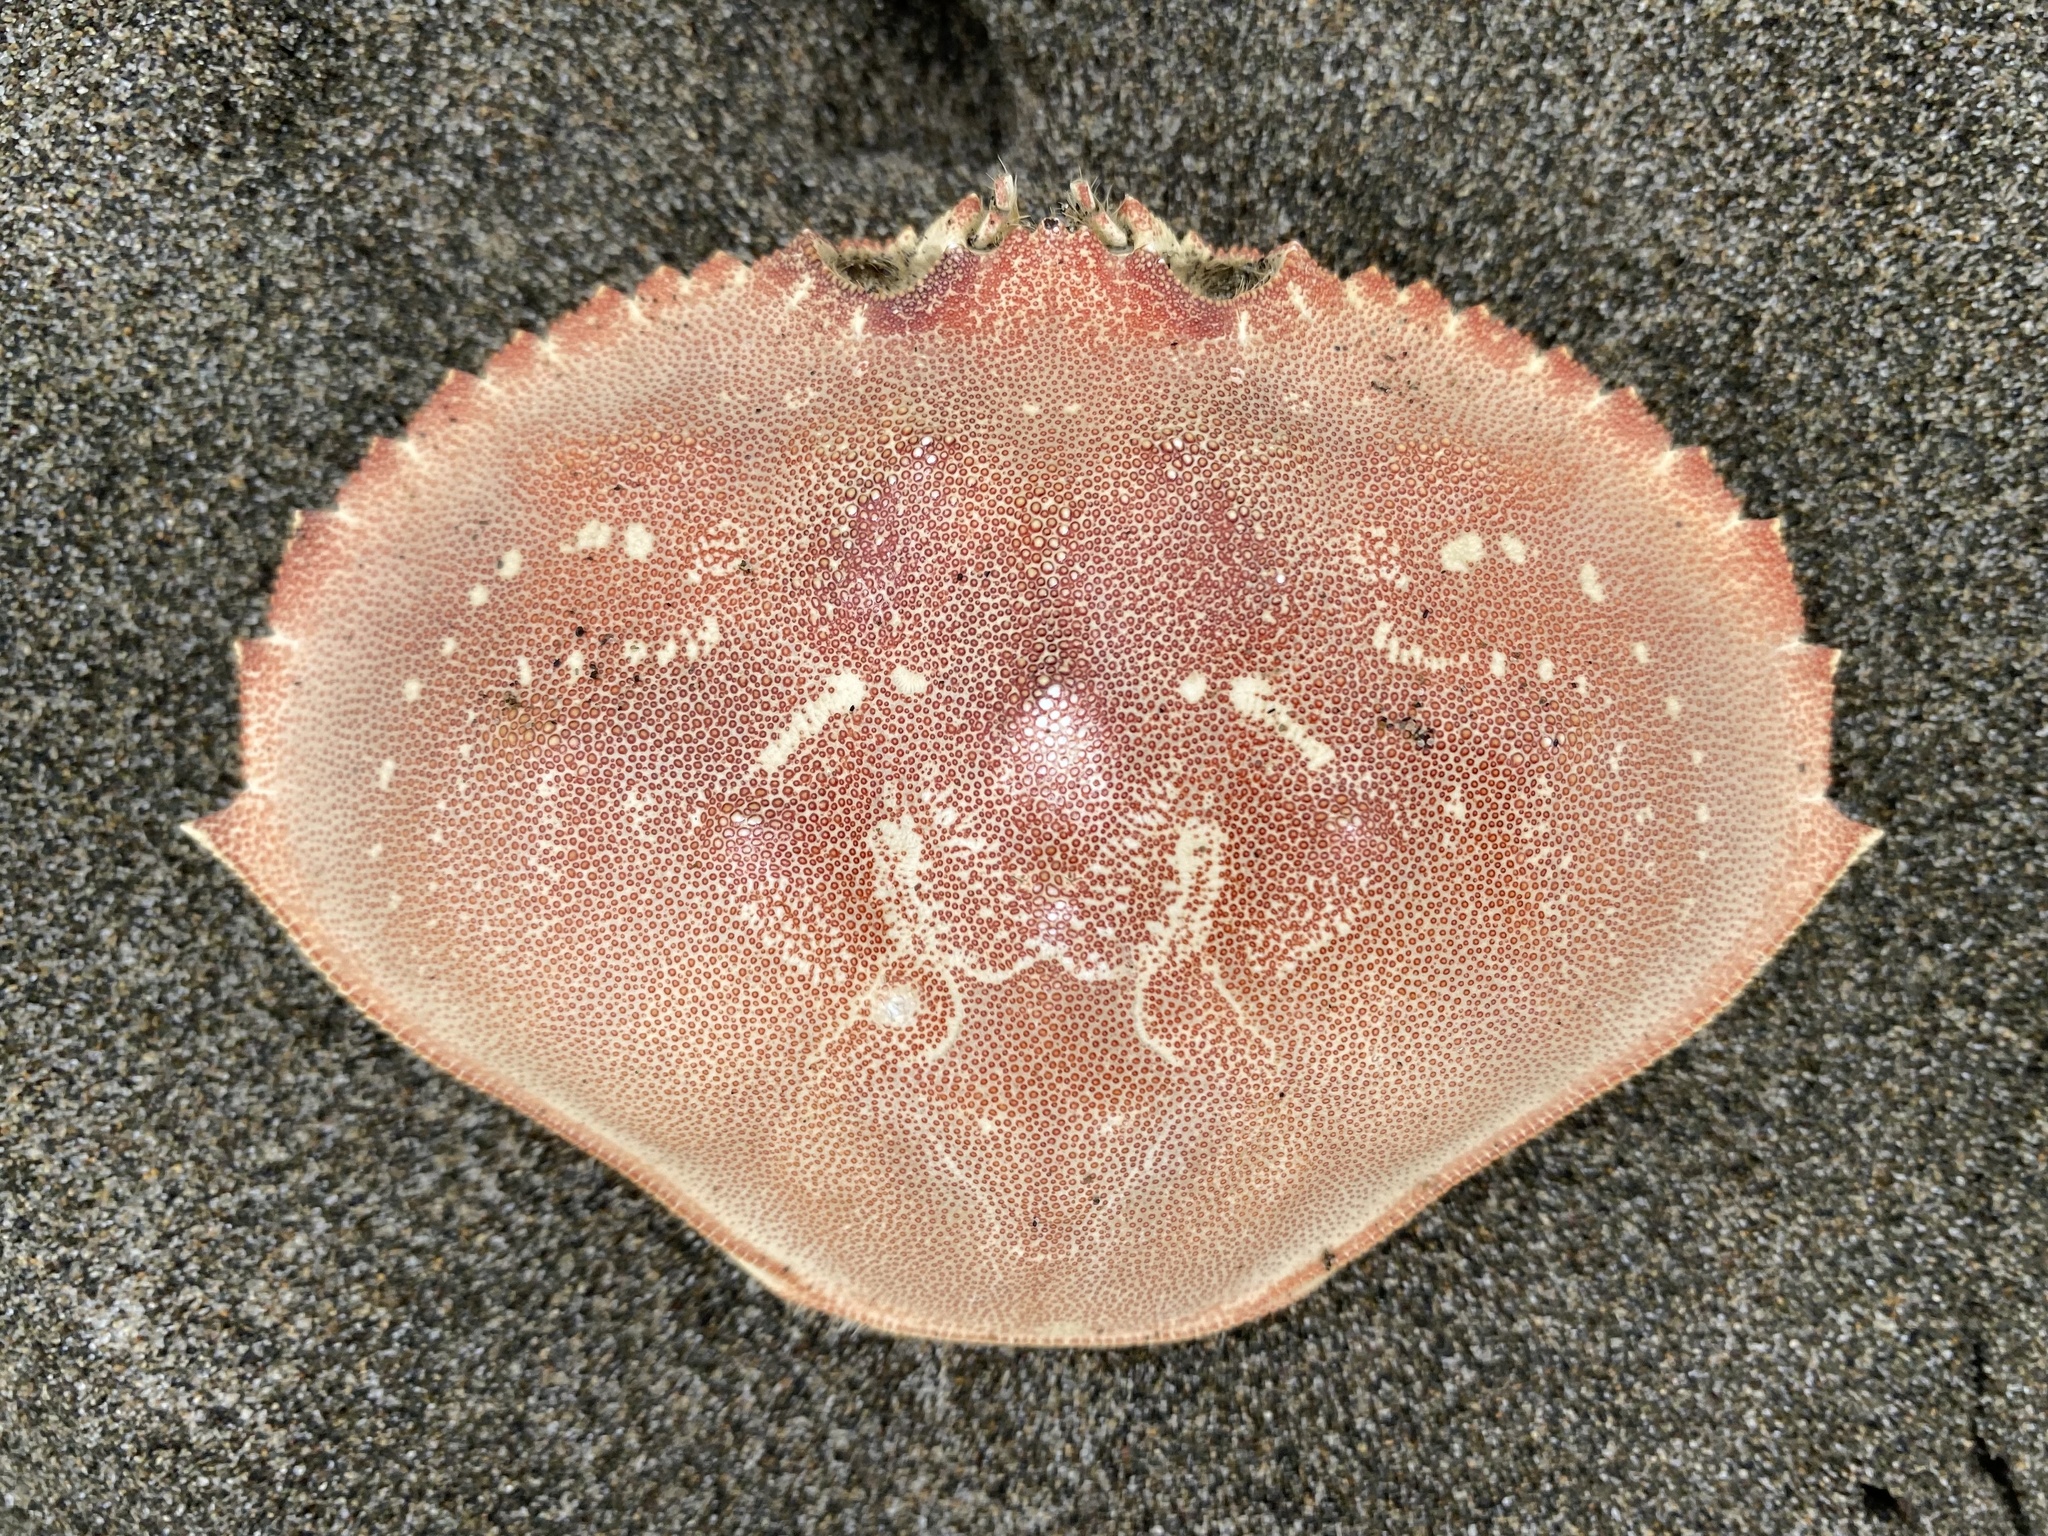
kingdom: Animalia
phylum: Arthropoda
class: Malacostraca
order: Decapoda
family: Cancridae
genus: Metacarcinus
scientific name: Metacarcinus magister
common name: Californian crab
